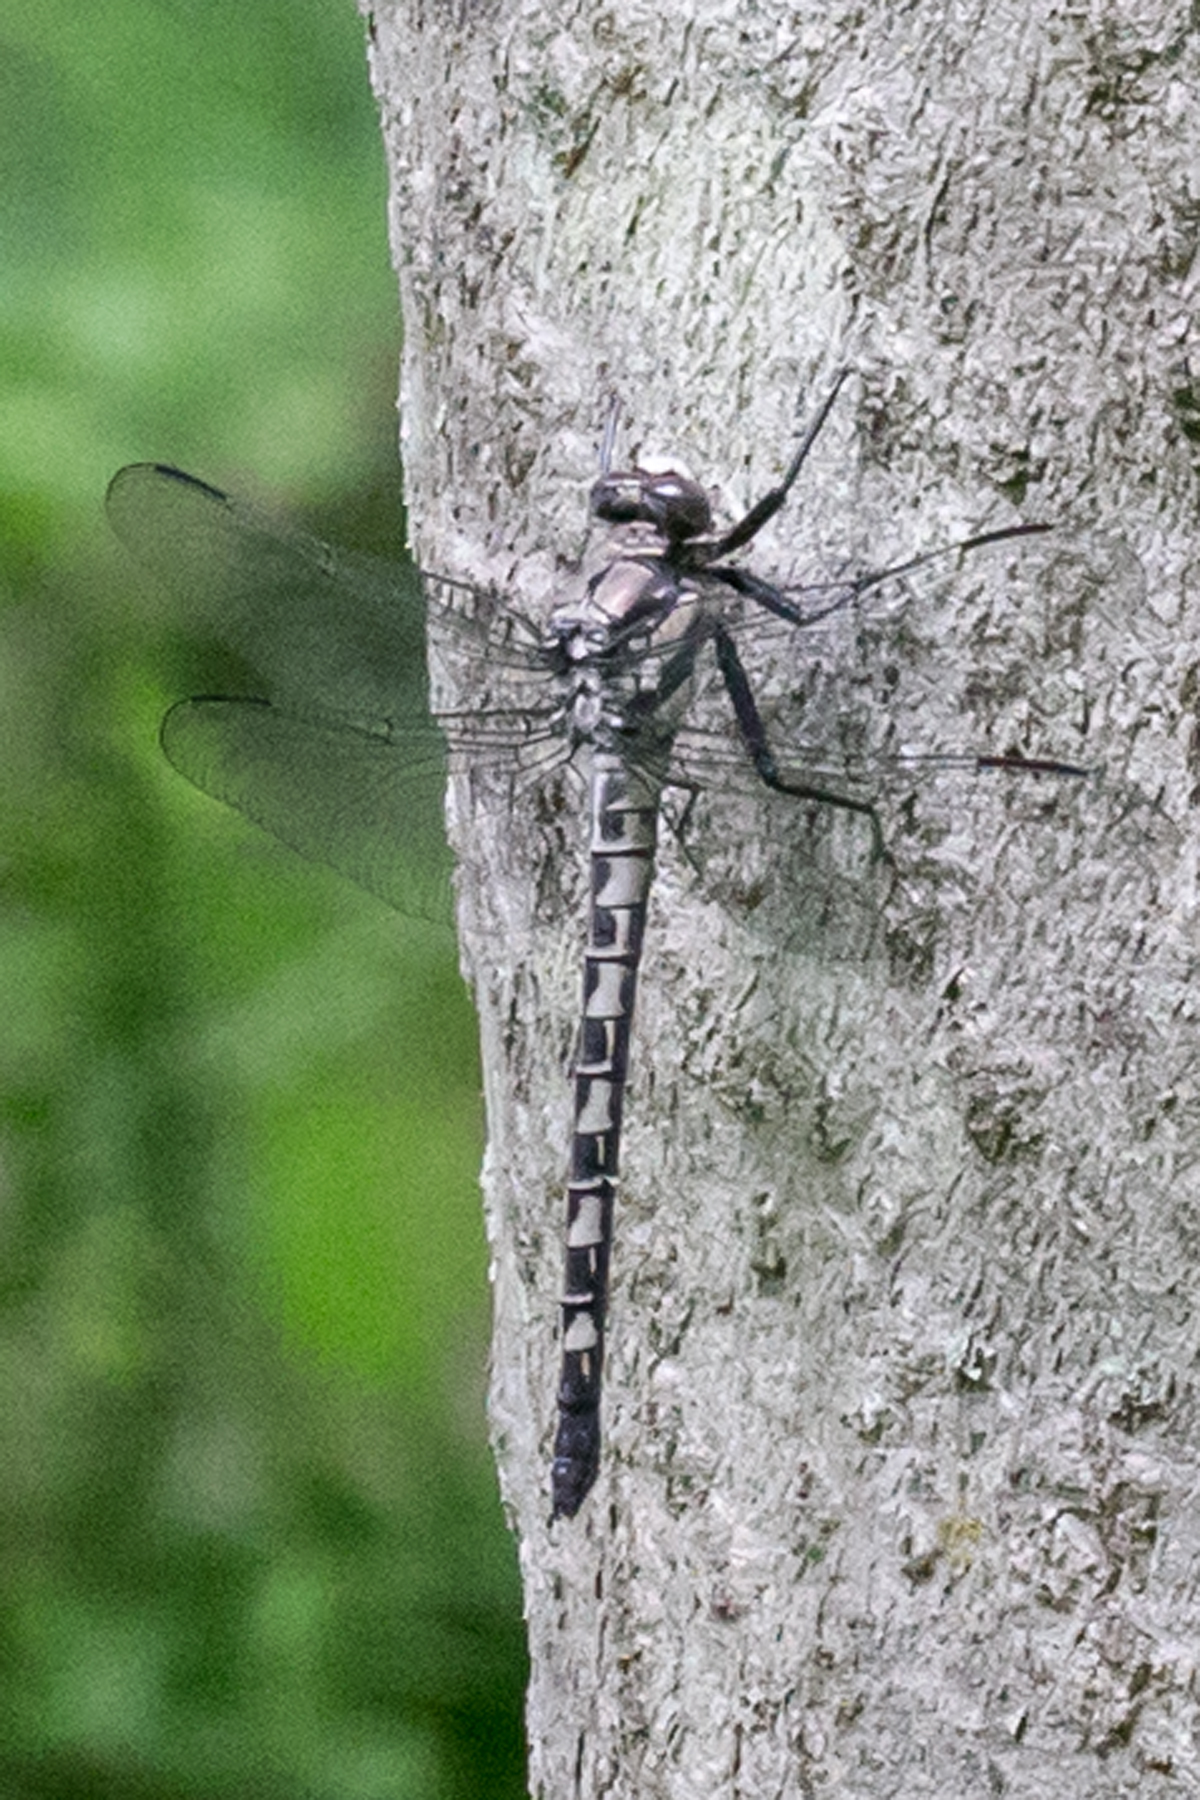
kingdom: Animalia
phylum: Arthropoda
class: Insecta
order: Odonata
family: Petaluridae
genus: Tachopteryx
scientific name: Tachopteryx thoreyi
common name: Gray petaltail
